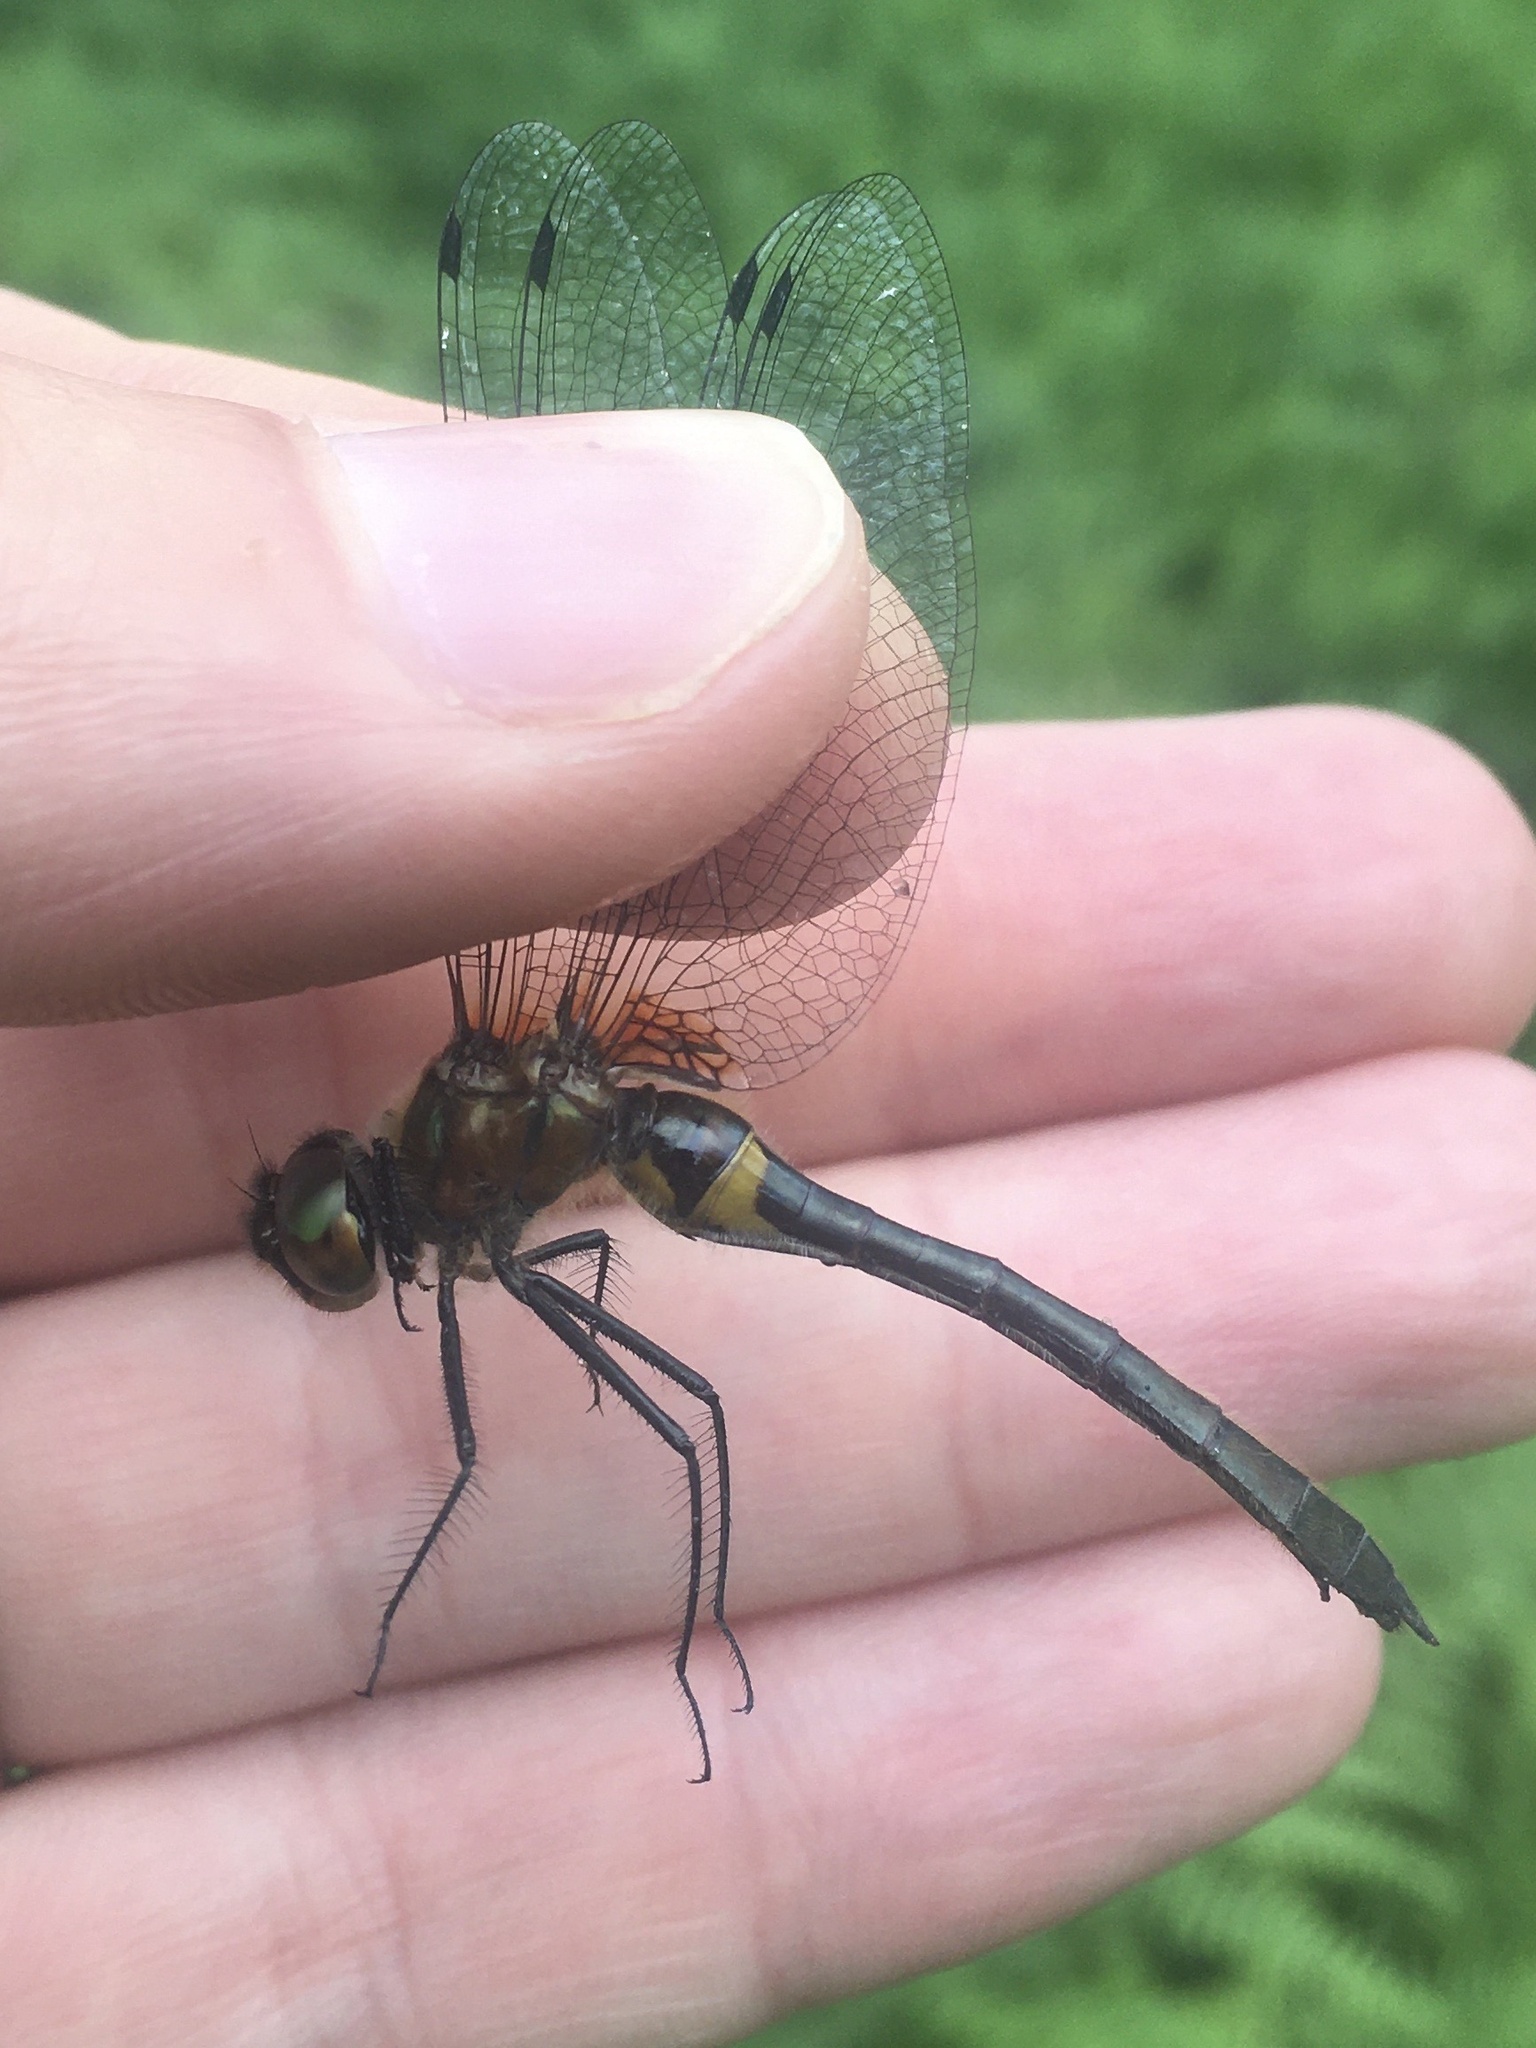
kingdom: Animalia
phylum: Arthropoda
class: Insecta
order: Odonata
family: Corduliidae
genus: Dorocordulia
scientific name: Dorocordulia libera
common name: Racket-tailed emerald
